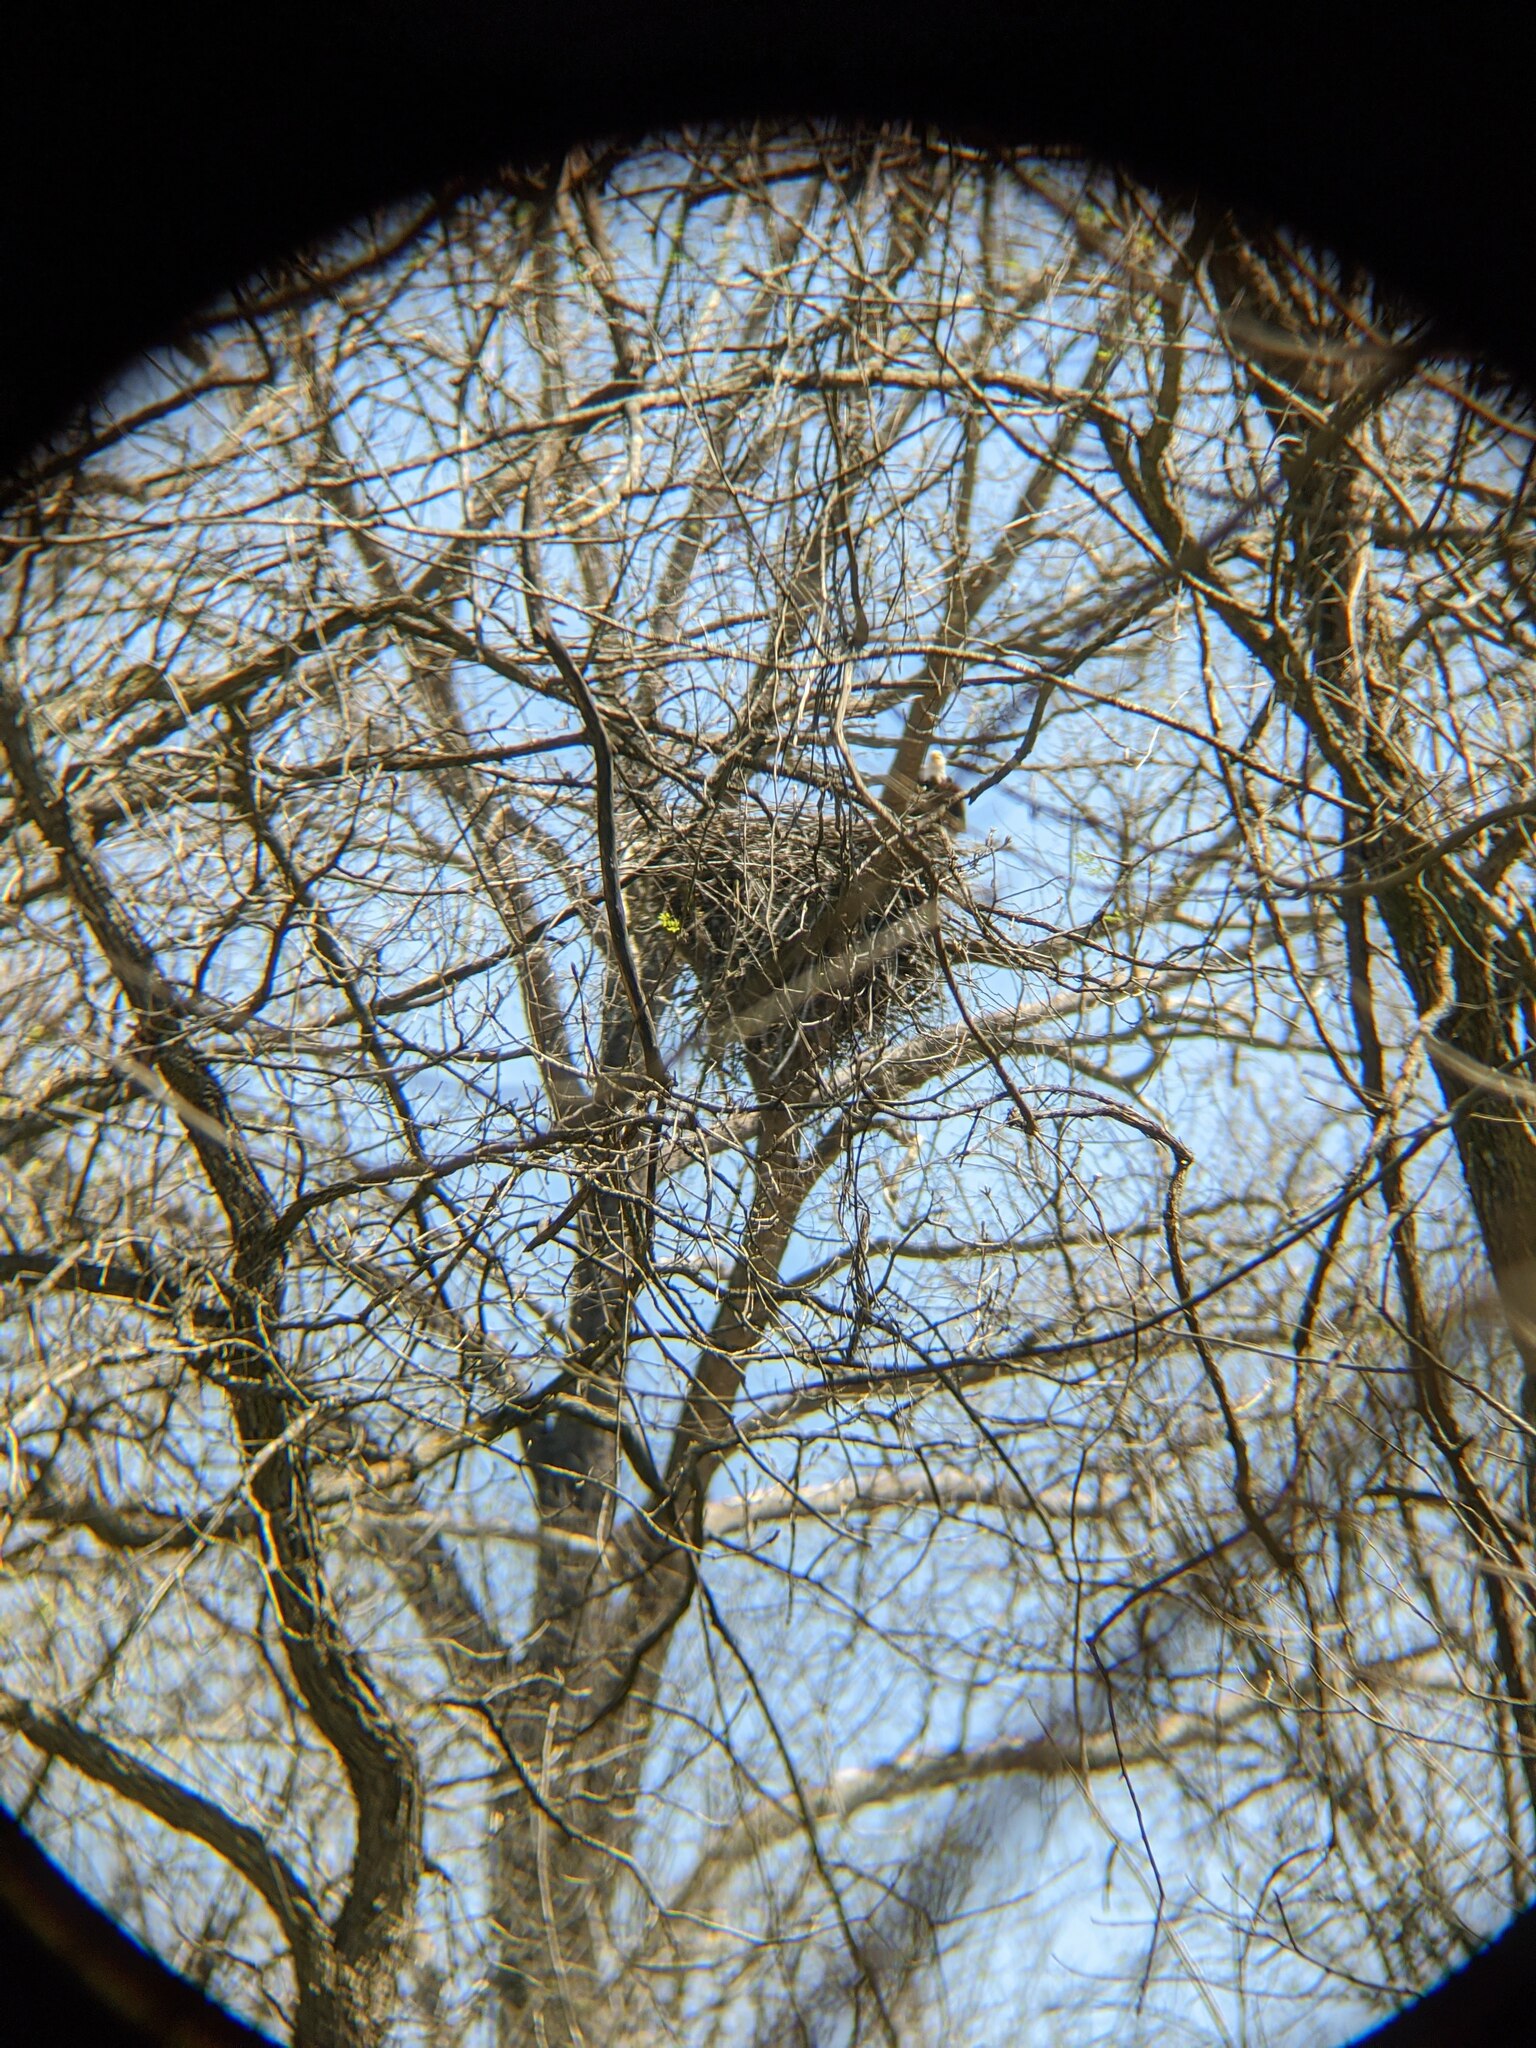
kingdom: Animalia
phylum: Chordata
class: Aves
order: Accipitriformes
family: Accipitridae
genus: Haliaeetus
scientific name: Haliaeetus leucocephalus
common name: Bald eagle
